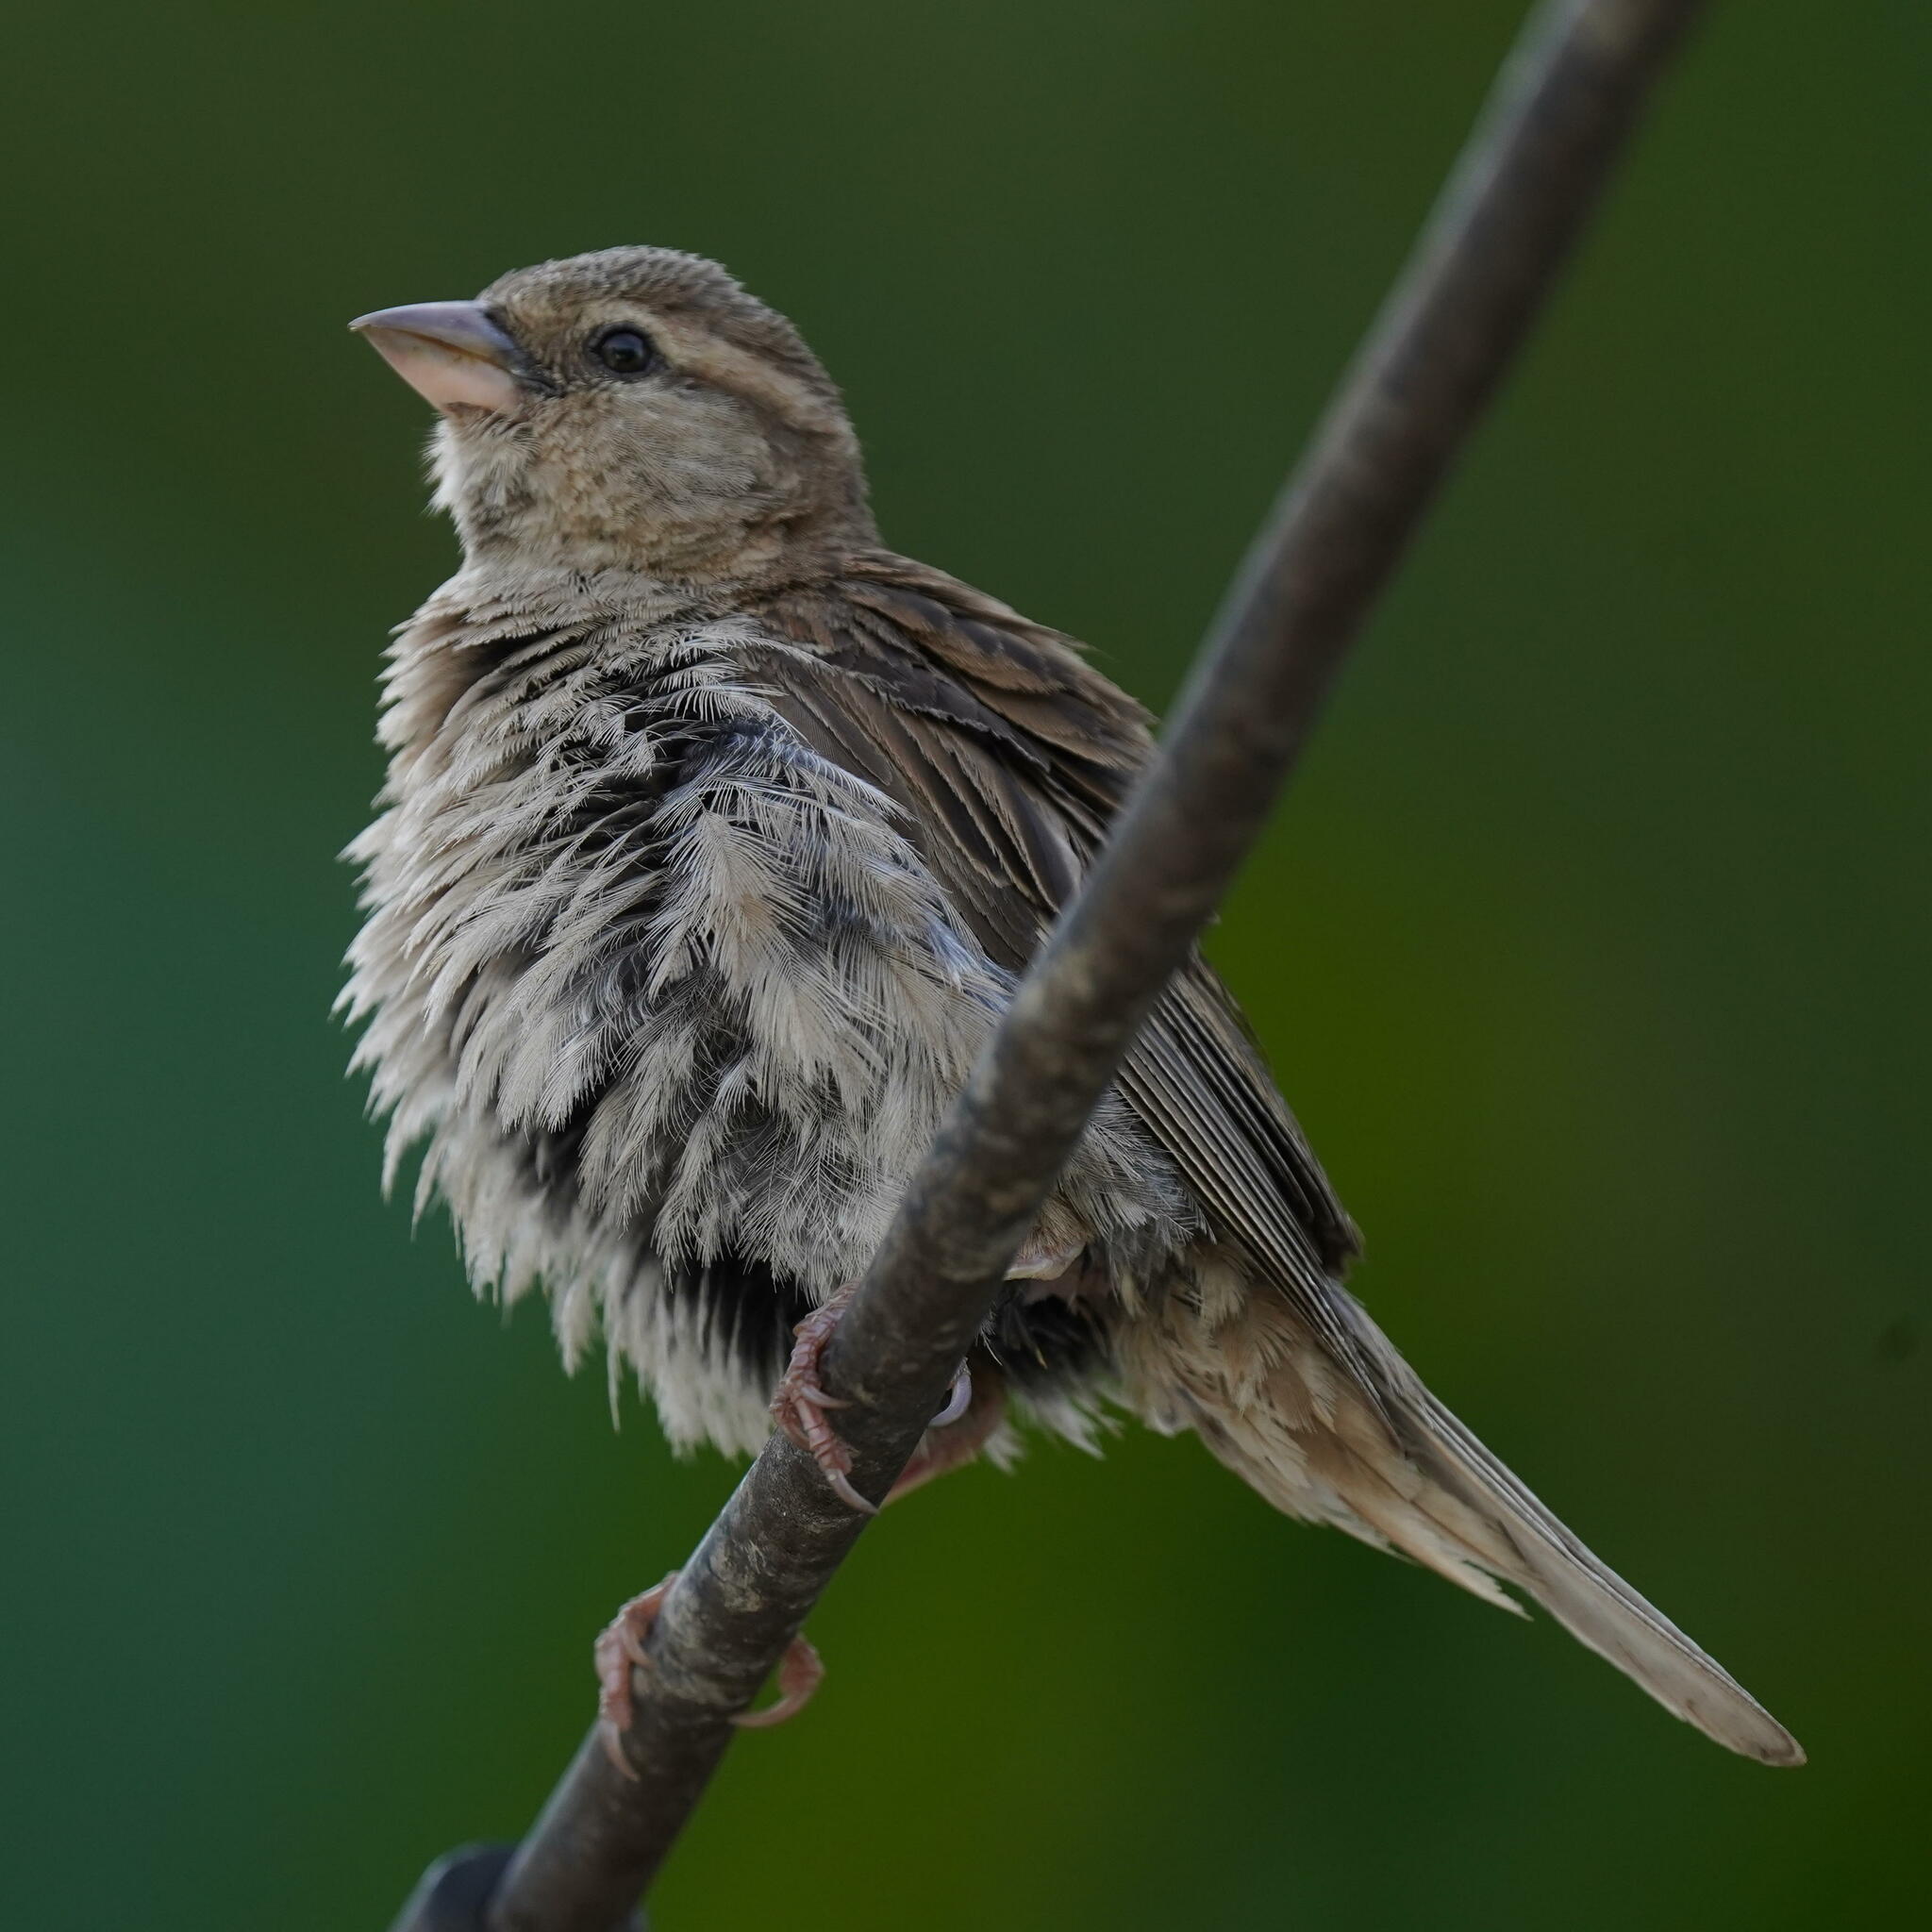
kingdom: Animalia
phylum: Chordata
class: Aves
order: Passeriformes
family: Passeridae
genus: Passer
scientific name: Passer domesticus
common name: House sparrow
